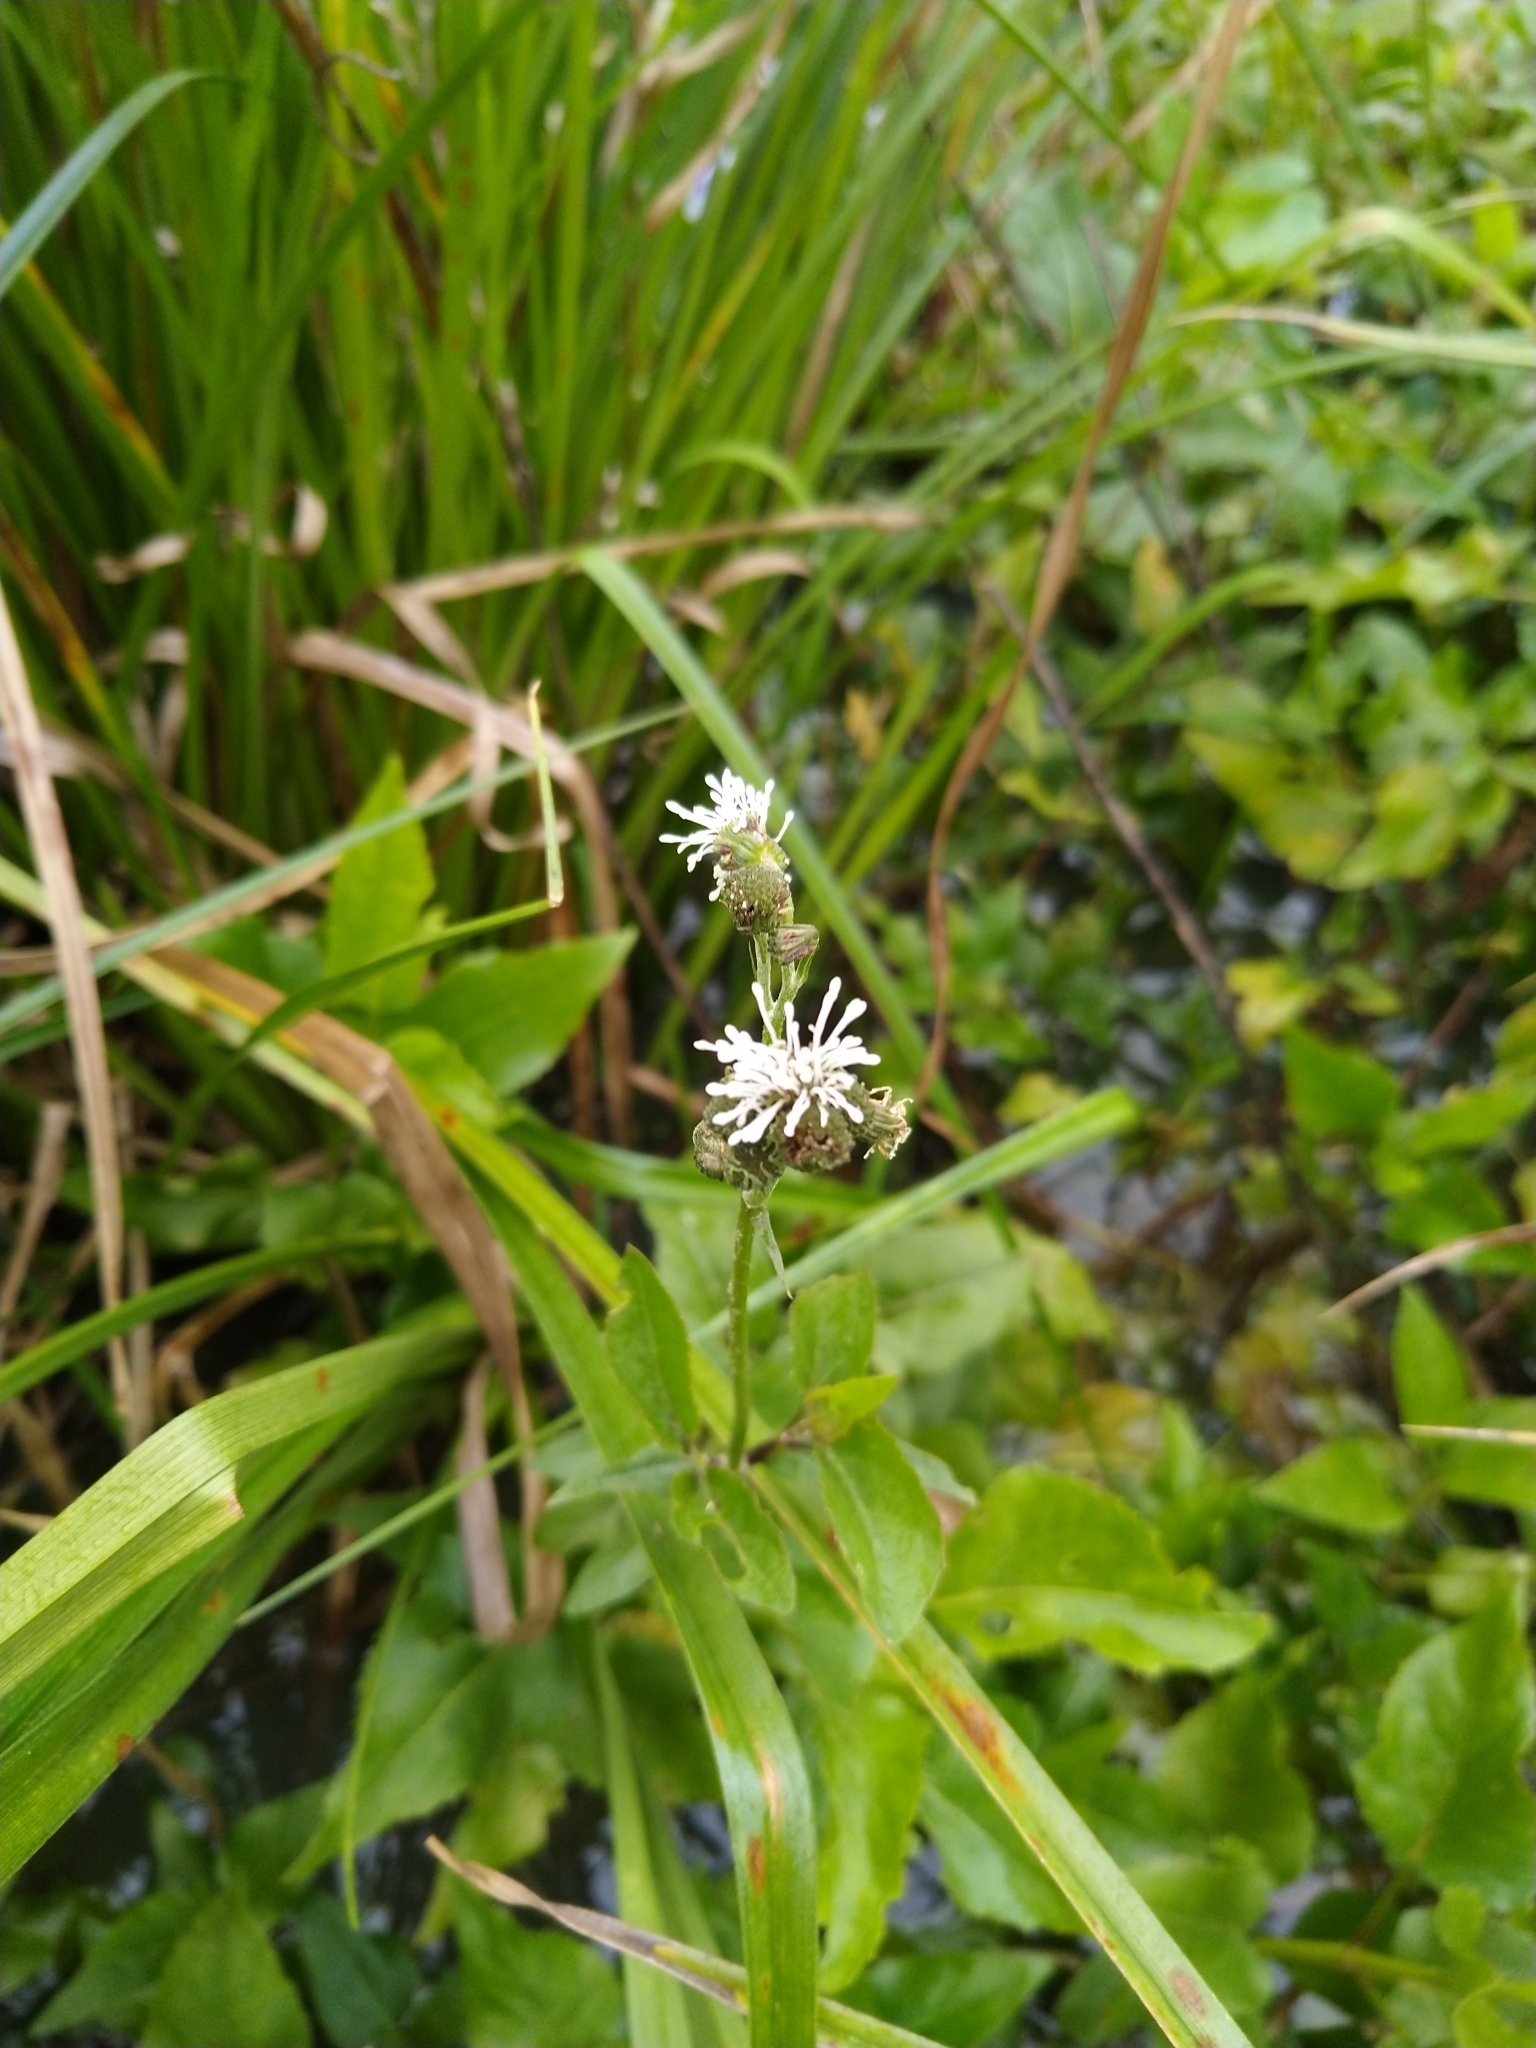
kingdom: Plantae
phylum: Tracheophyta
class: Magnoliopsida
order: Asterales
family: Asteraceae
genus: Gymnocoronis
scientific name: Gymnocoronis spilanthoides
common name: Senegal teaplant
